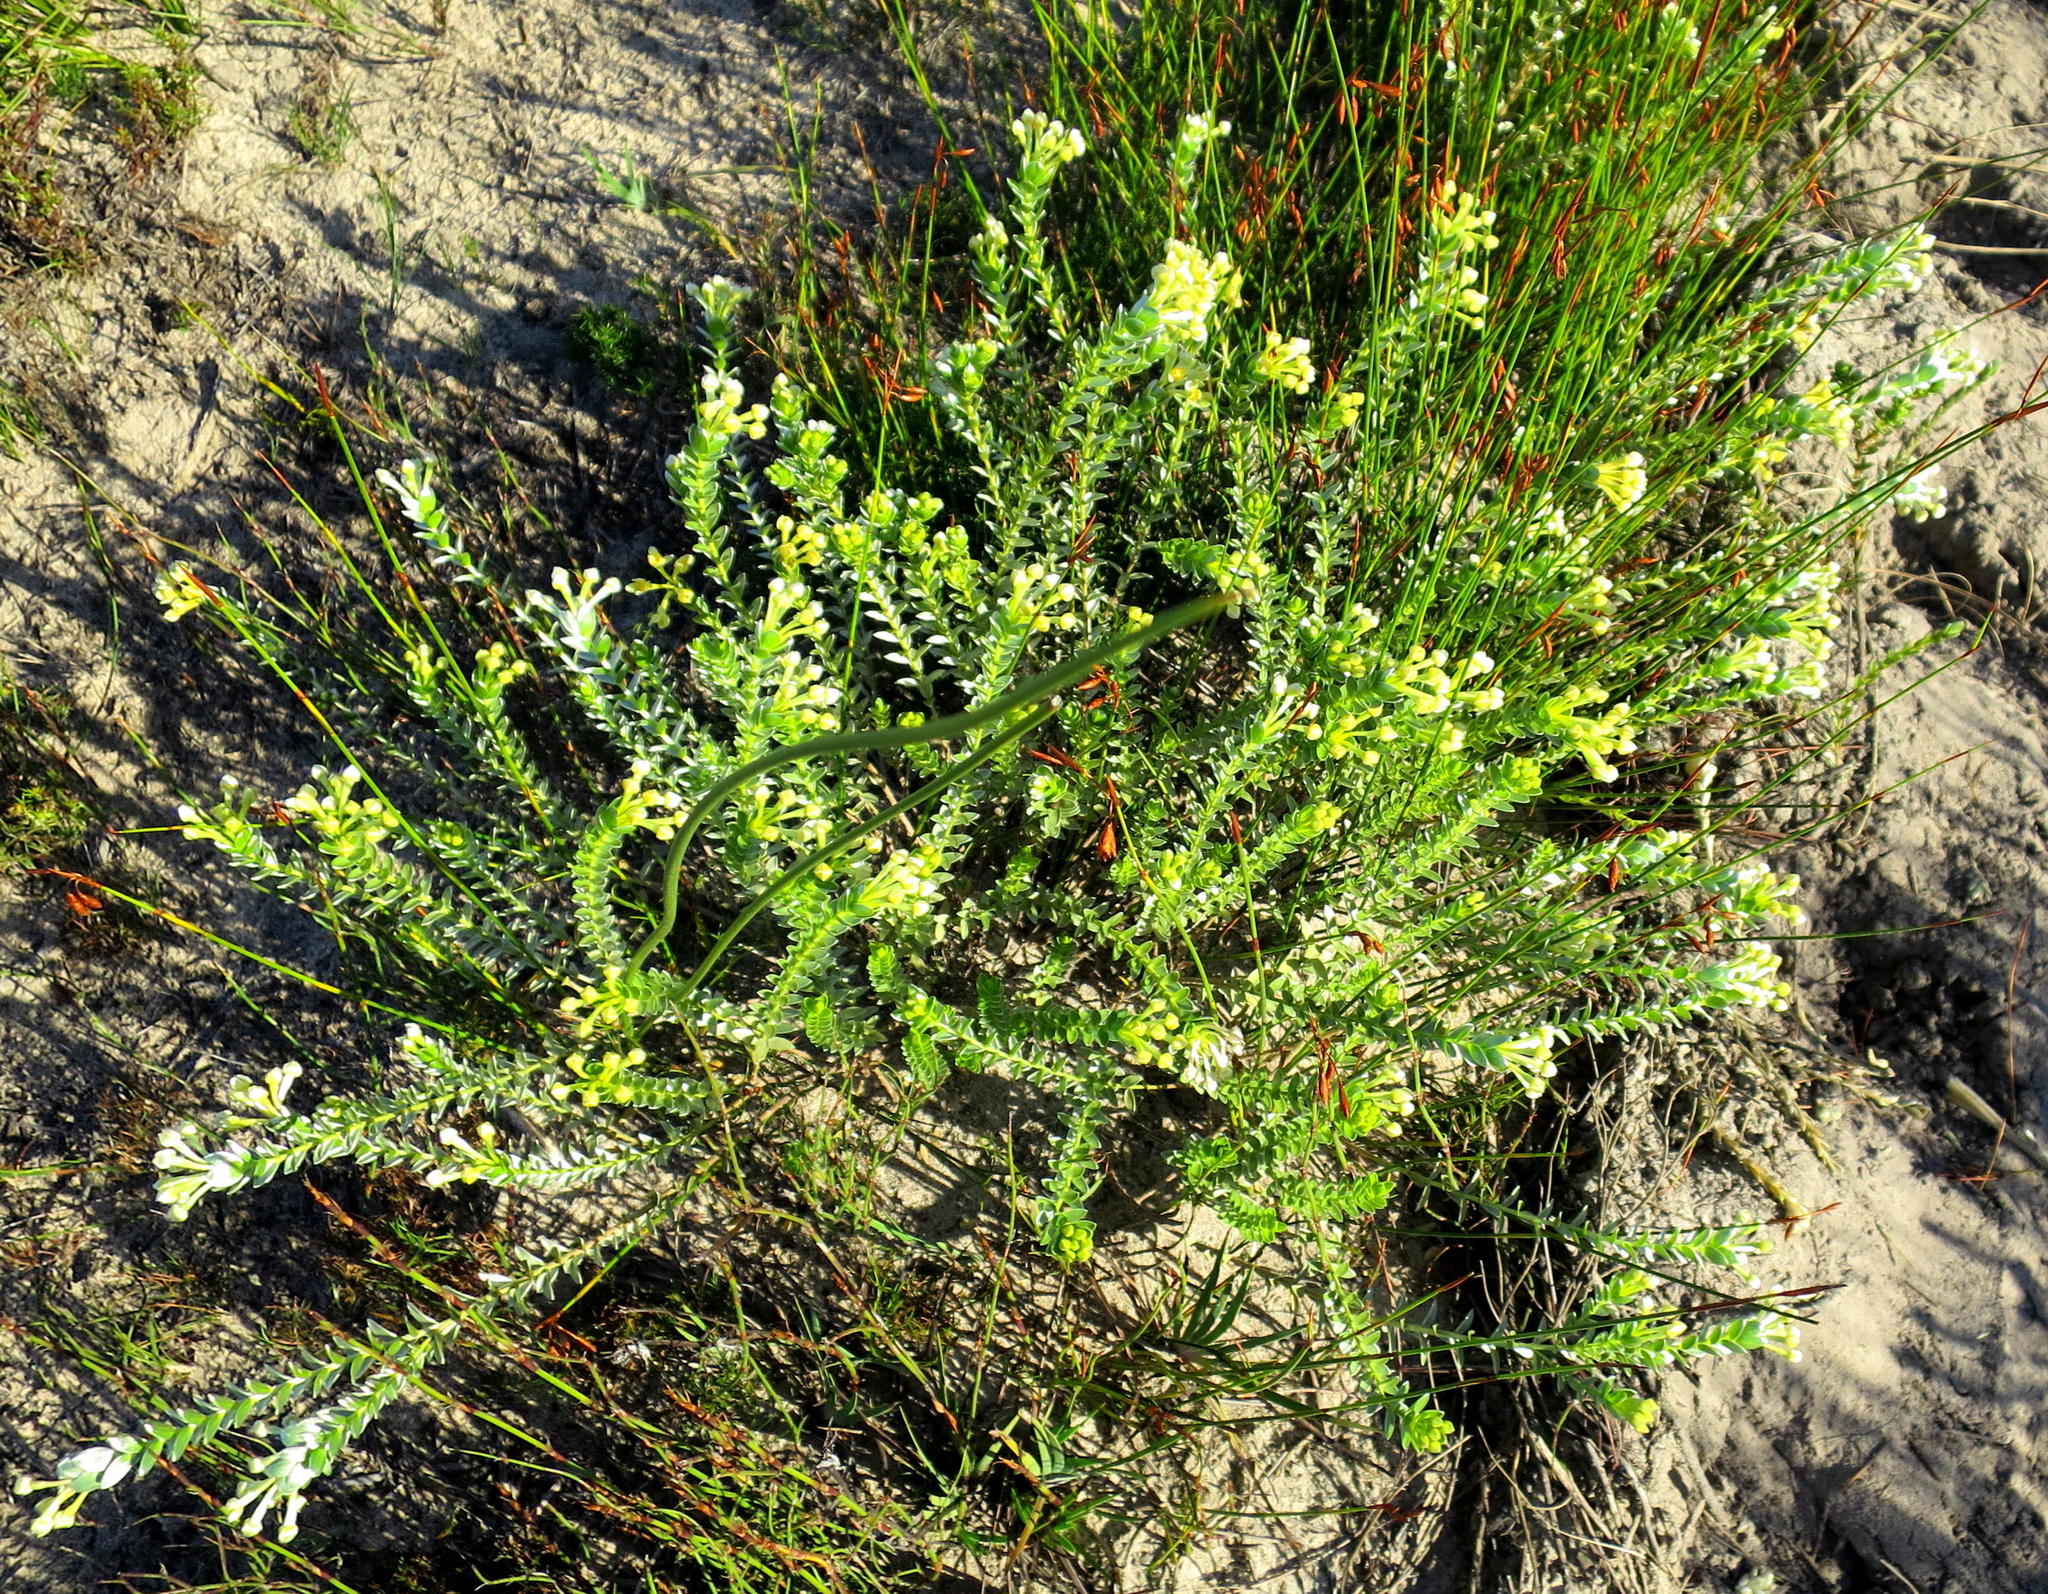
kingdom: Plantae
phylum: Tracheophyta
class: Magnoliopsida
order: Malvales
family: Thymelaeaceae
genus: Gnidia
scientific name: Gnidia chrysophylla
